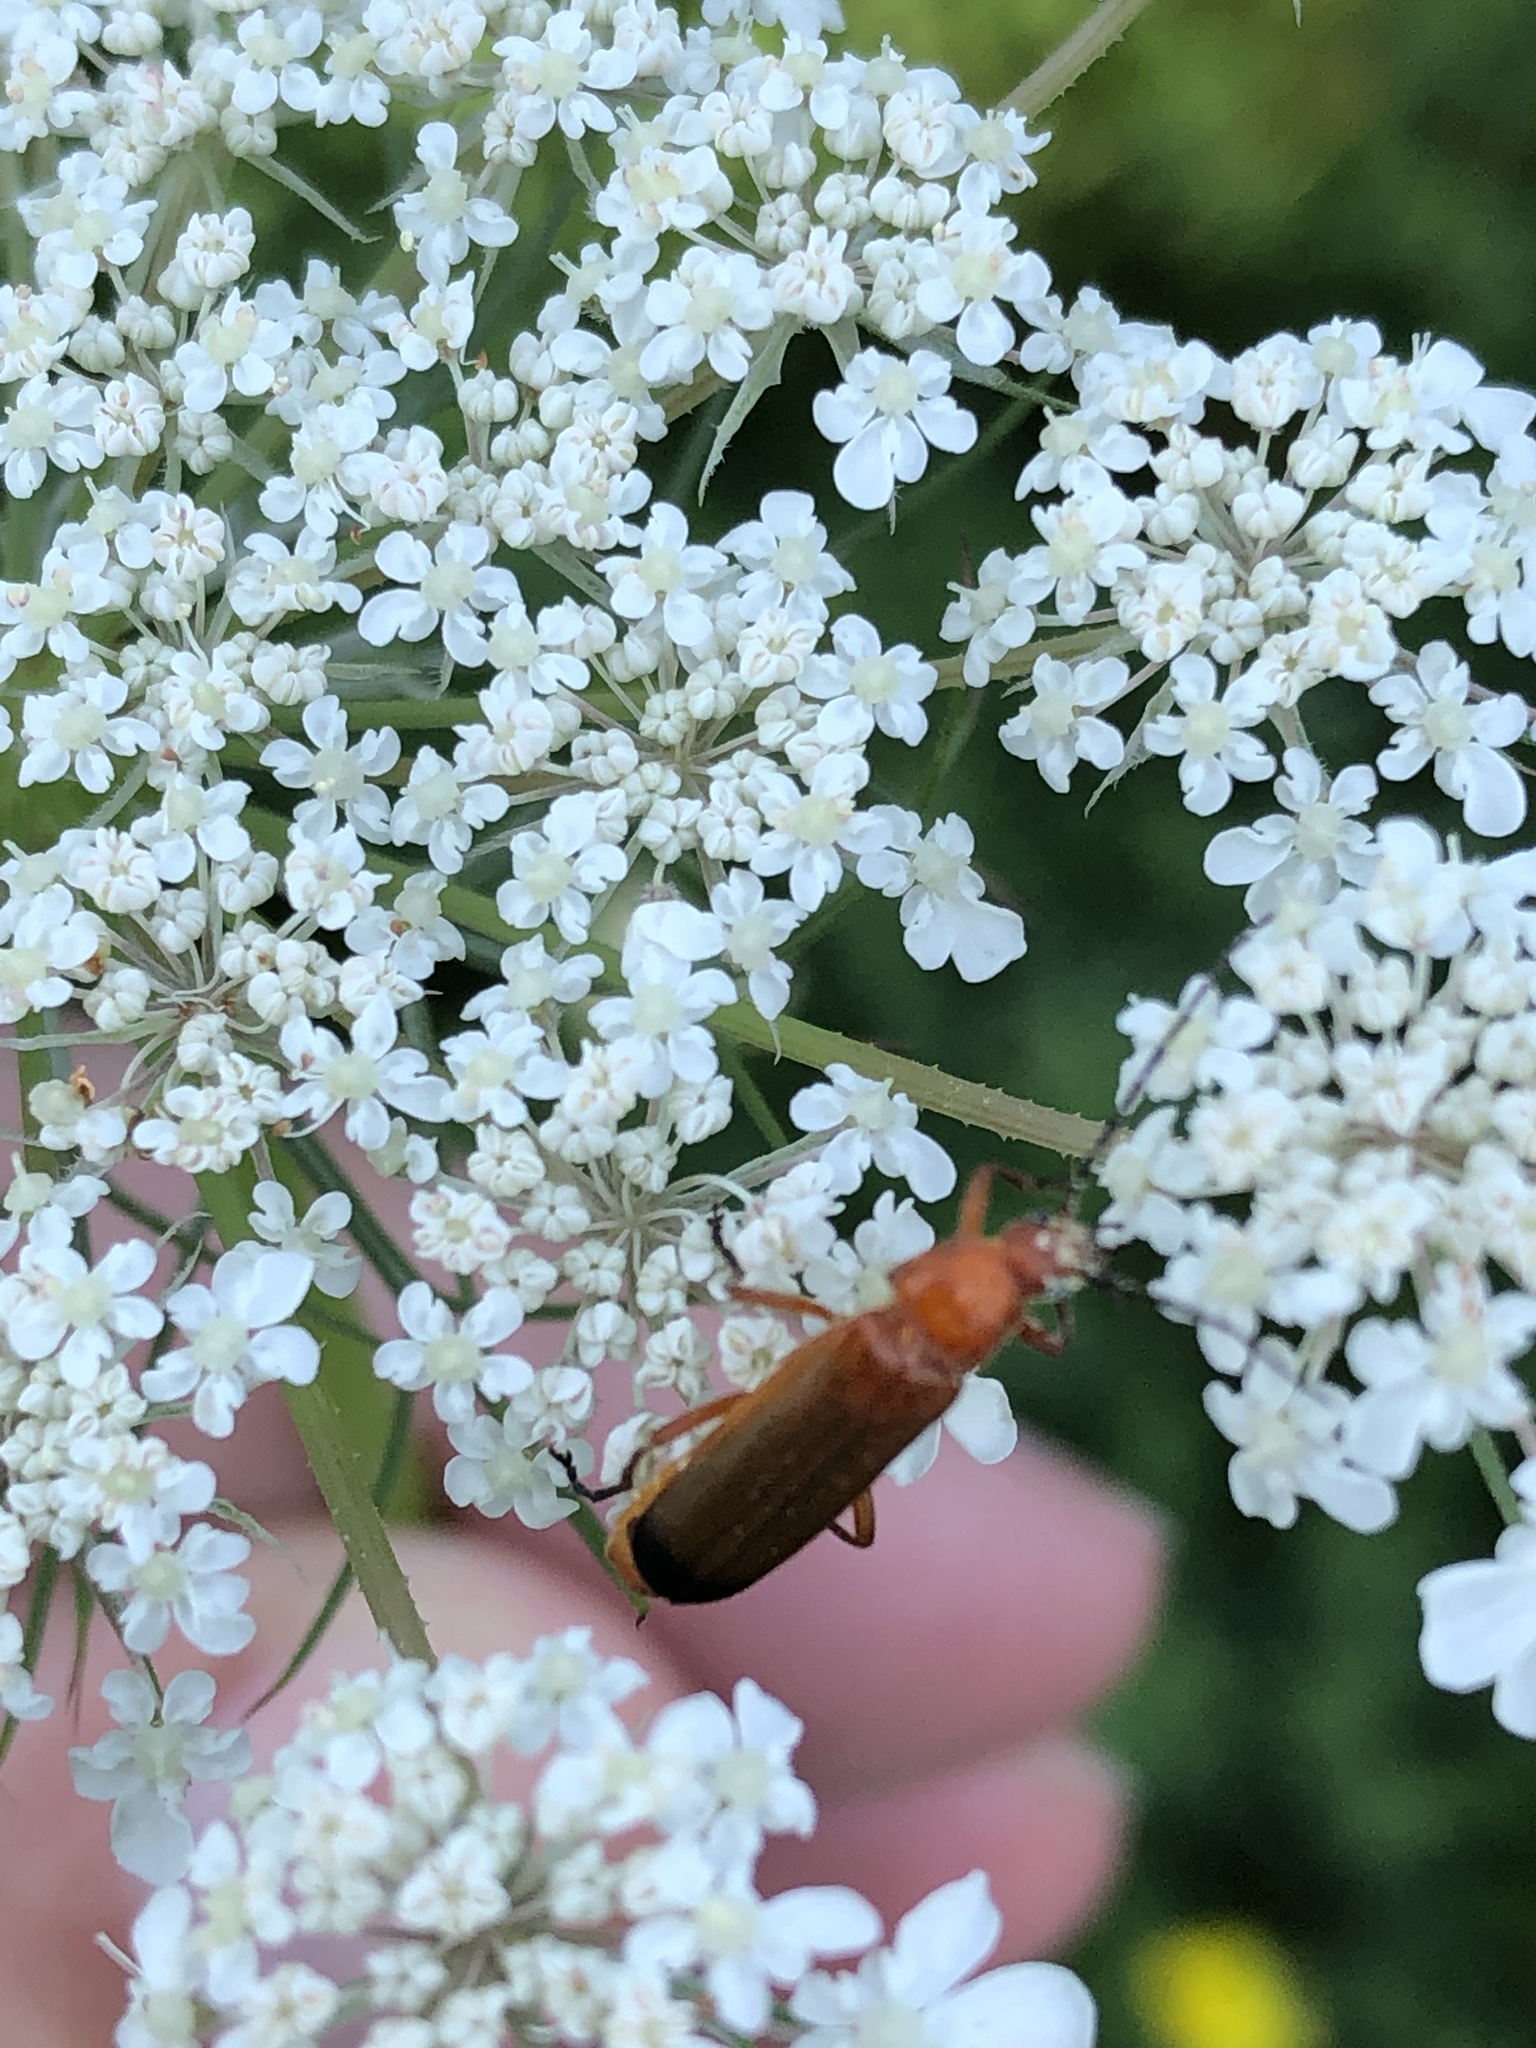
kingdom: Animalia
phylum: Arthropoda
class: Insecta
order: Coleoptera
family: Cantharidae
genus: Rhagonycha
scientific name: Rhagonycha fulva
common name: Common red soldier beetle
